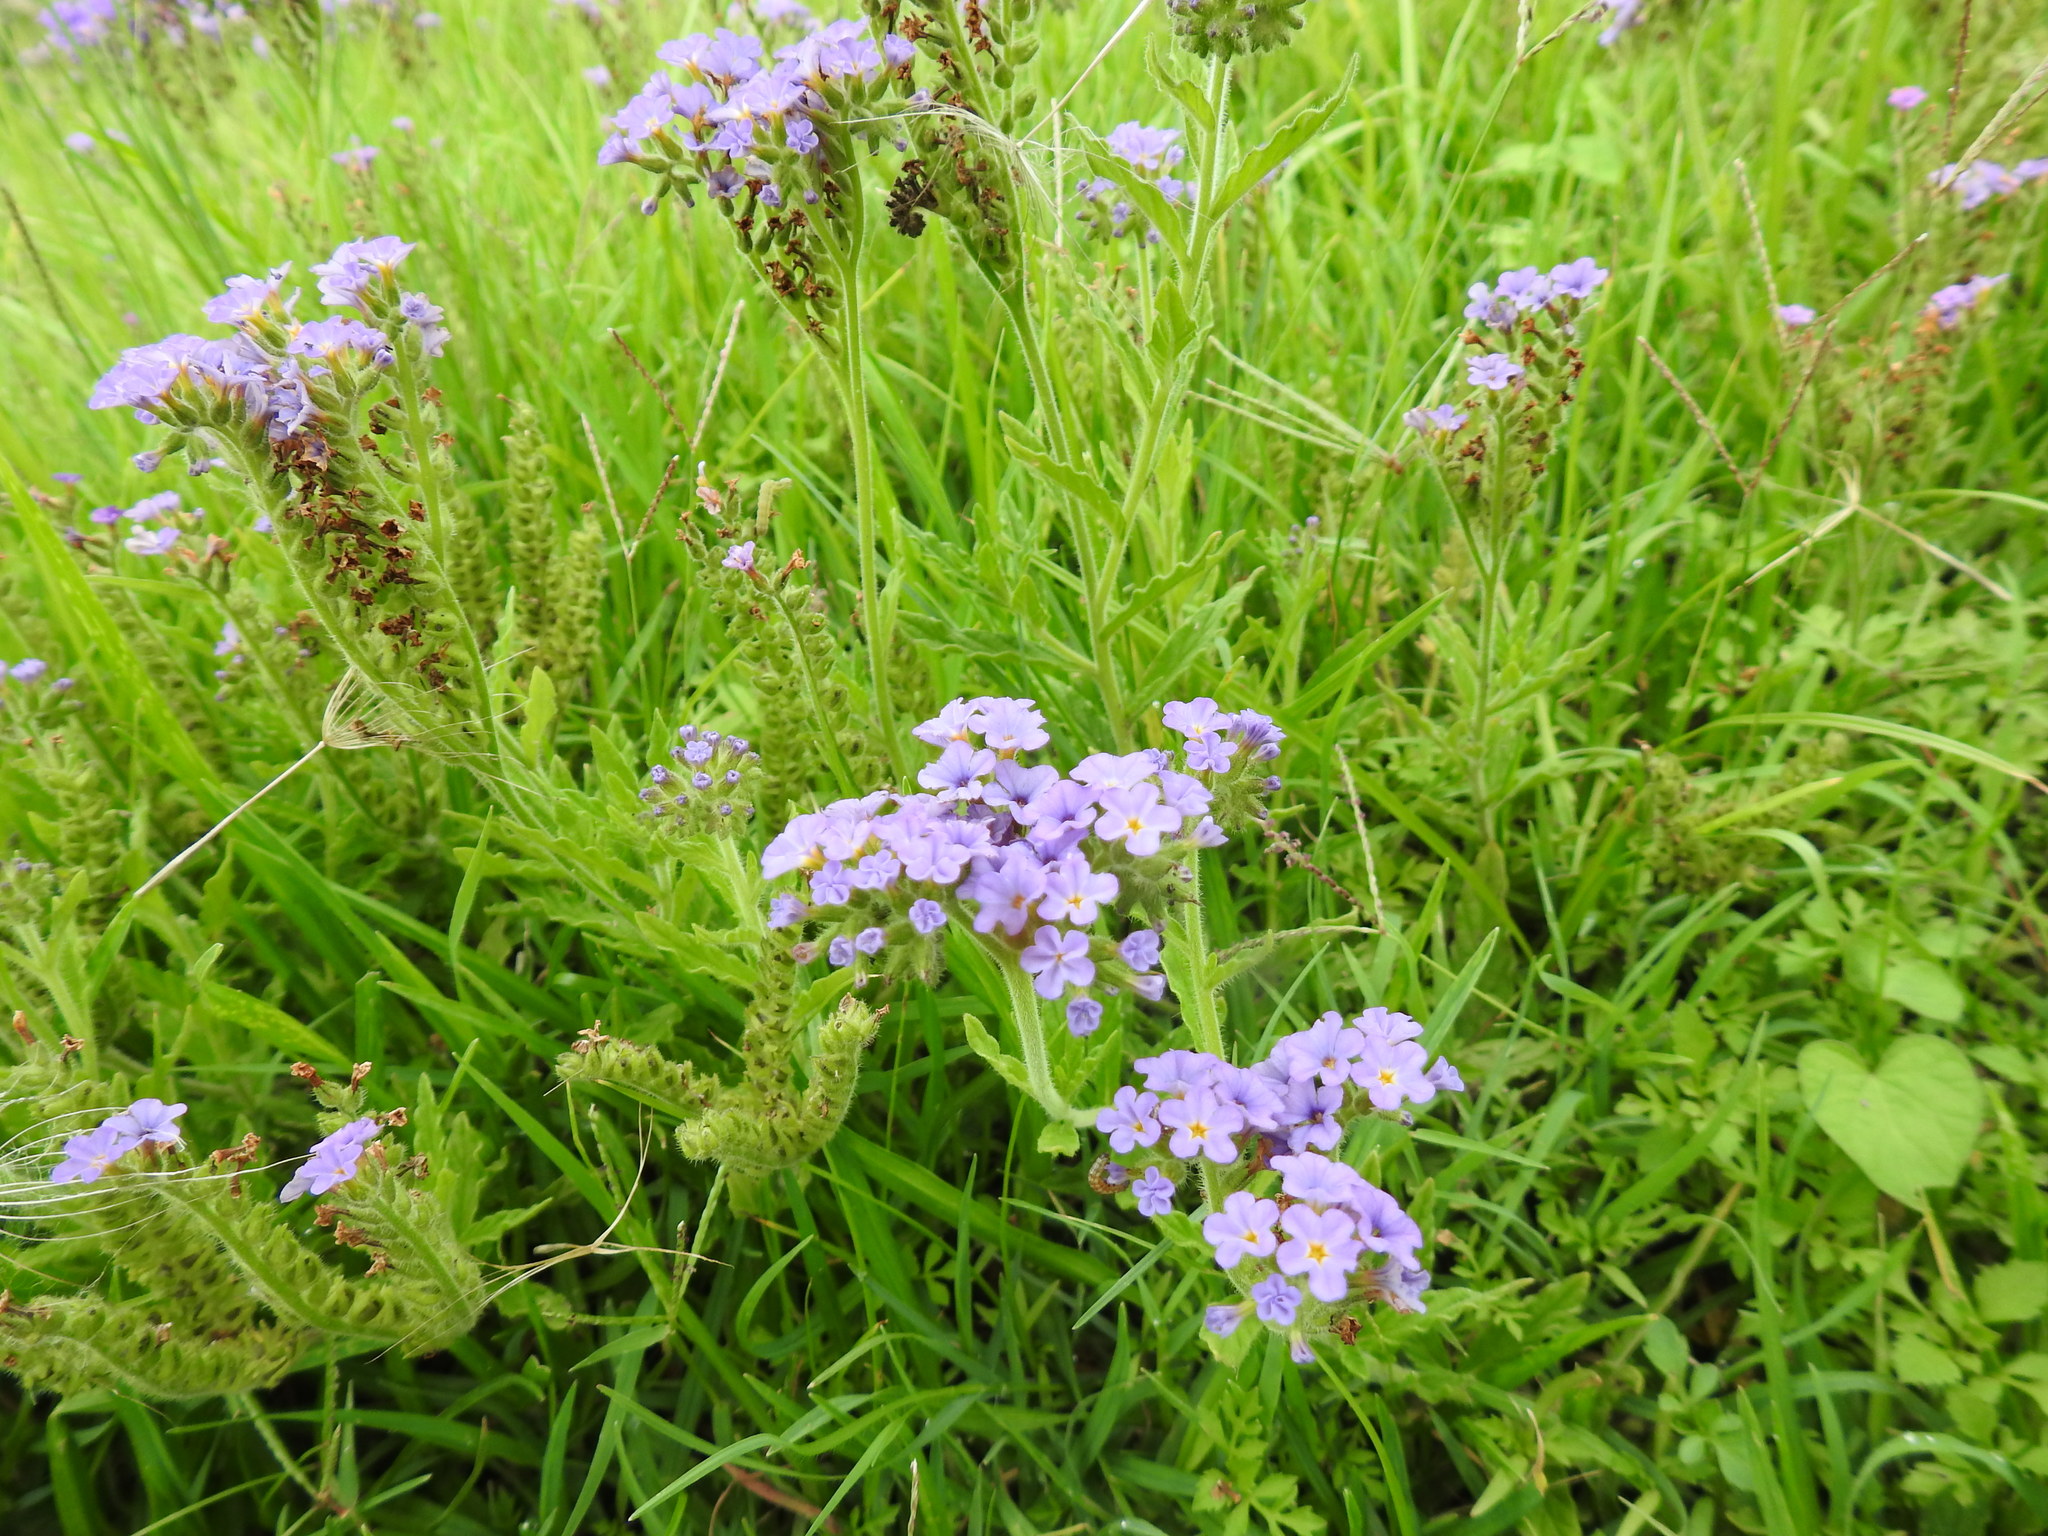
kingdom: Plantae
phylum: Tracheophyta
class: Magnoliopsida
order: Boraginales
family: Heliotropiaceae
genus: Heliotropium
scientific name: Heliotropium amplexicaule
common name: Clasping heliotrope
